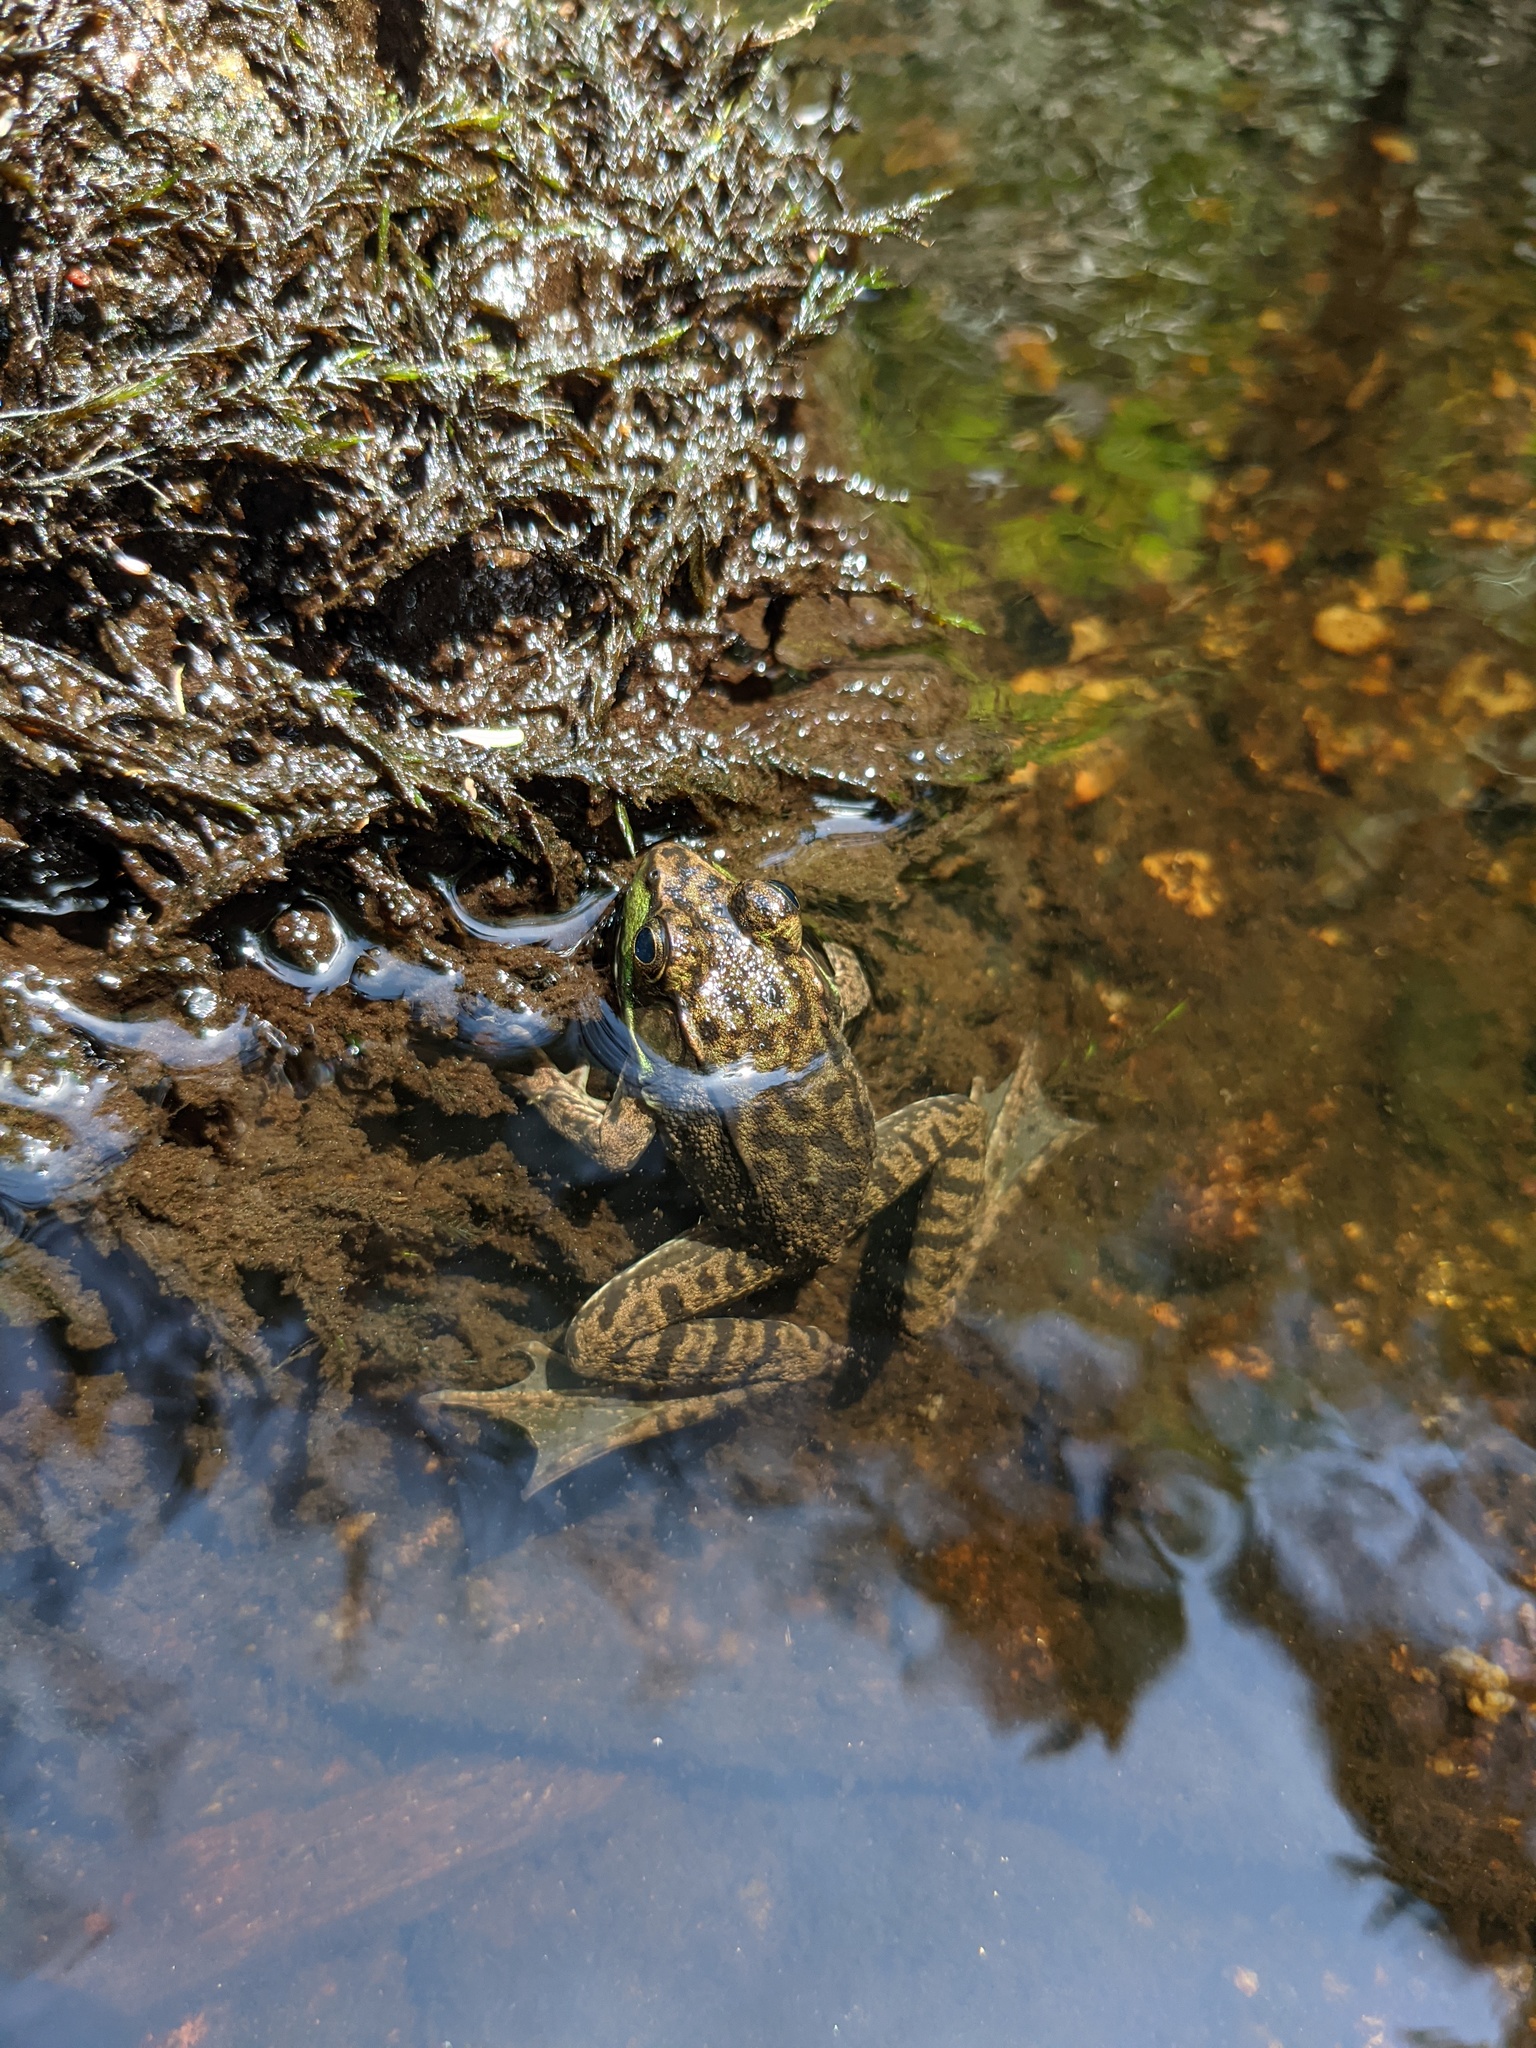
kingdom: Fungi
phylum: Basidiomycota
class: Agaricomycetes
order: Agaricales
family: Amanitaceae
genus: Amanita
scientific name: Amanita muscaria
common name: Fly agaric
